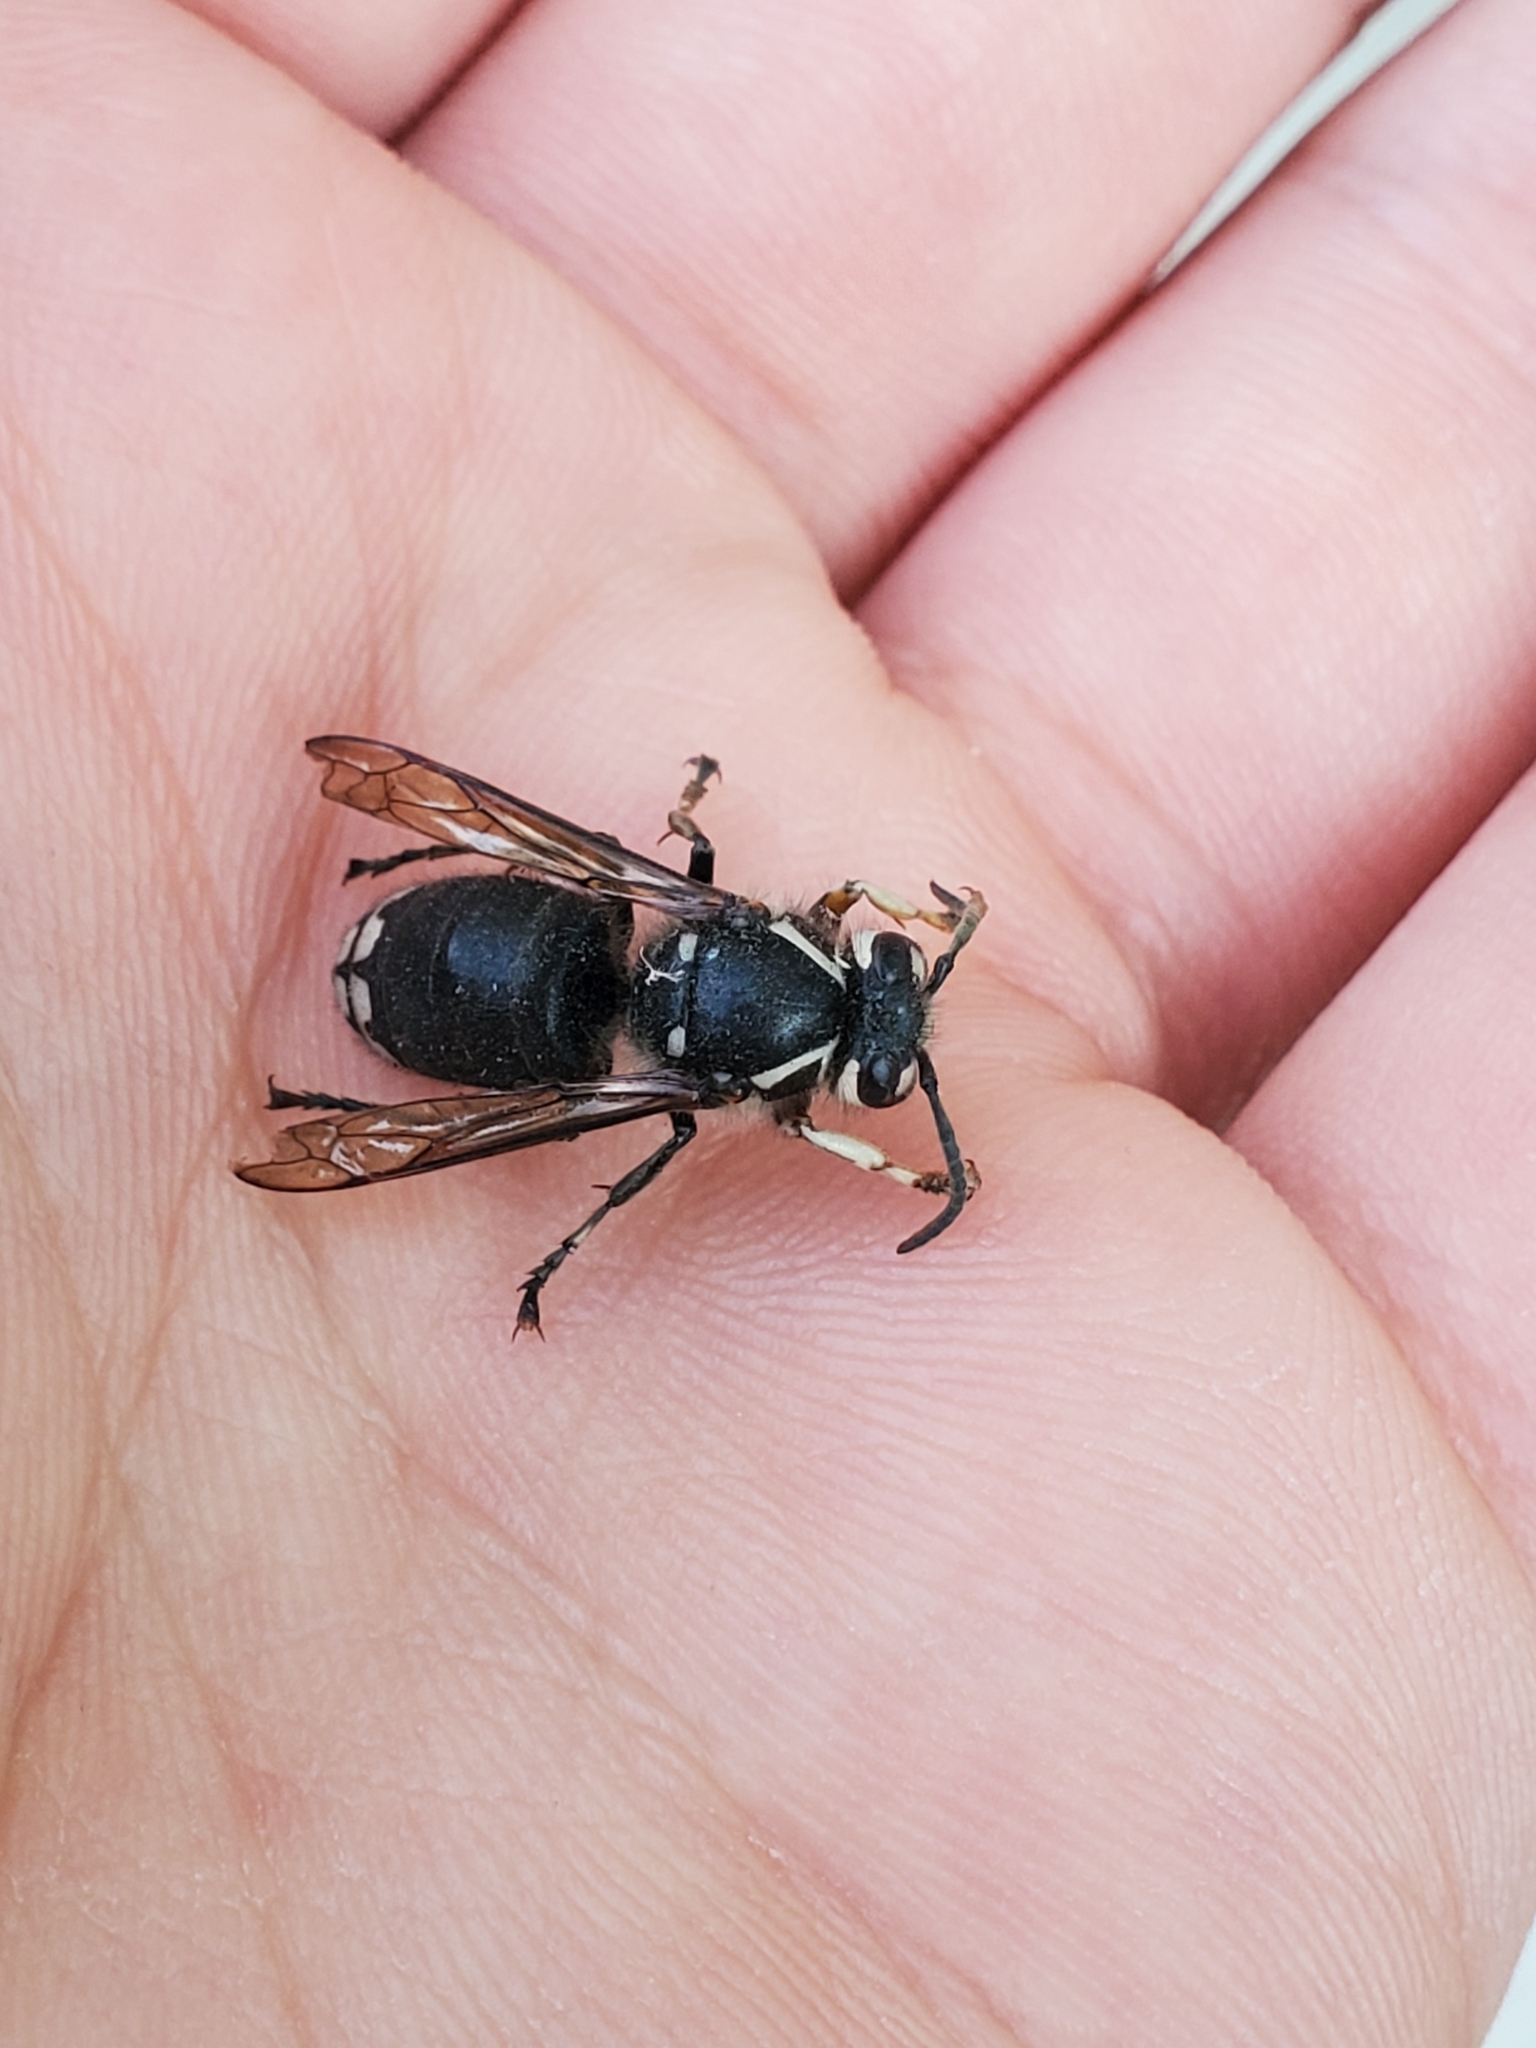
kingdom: Animalia
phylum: Arthropoda
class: Insecta
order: Hymenoptera
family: Vespidae
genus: Dolichovespula
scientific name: Dolichovespula maculata
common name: Bald-faced hornet
